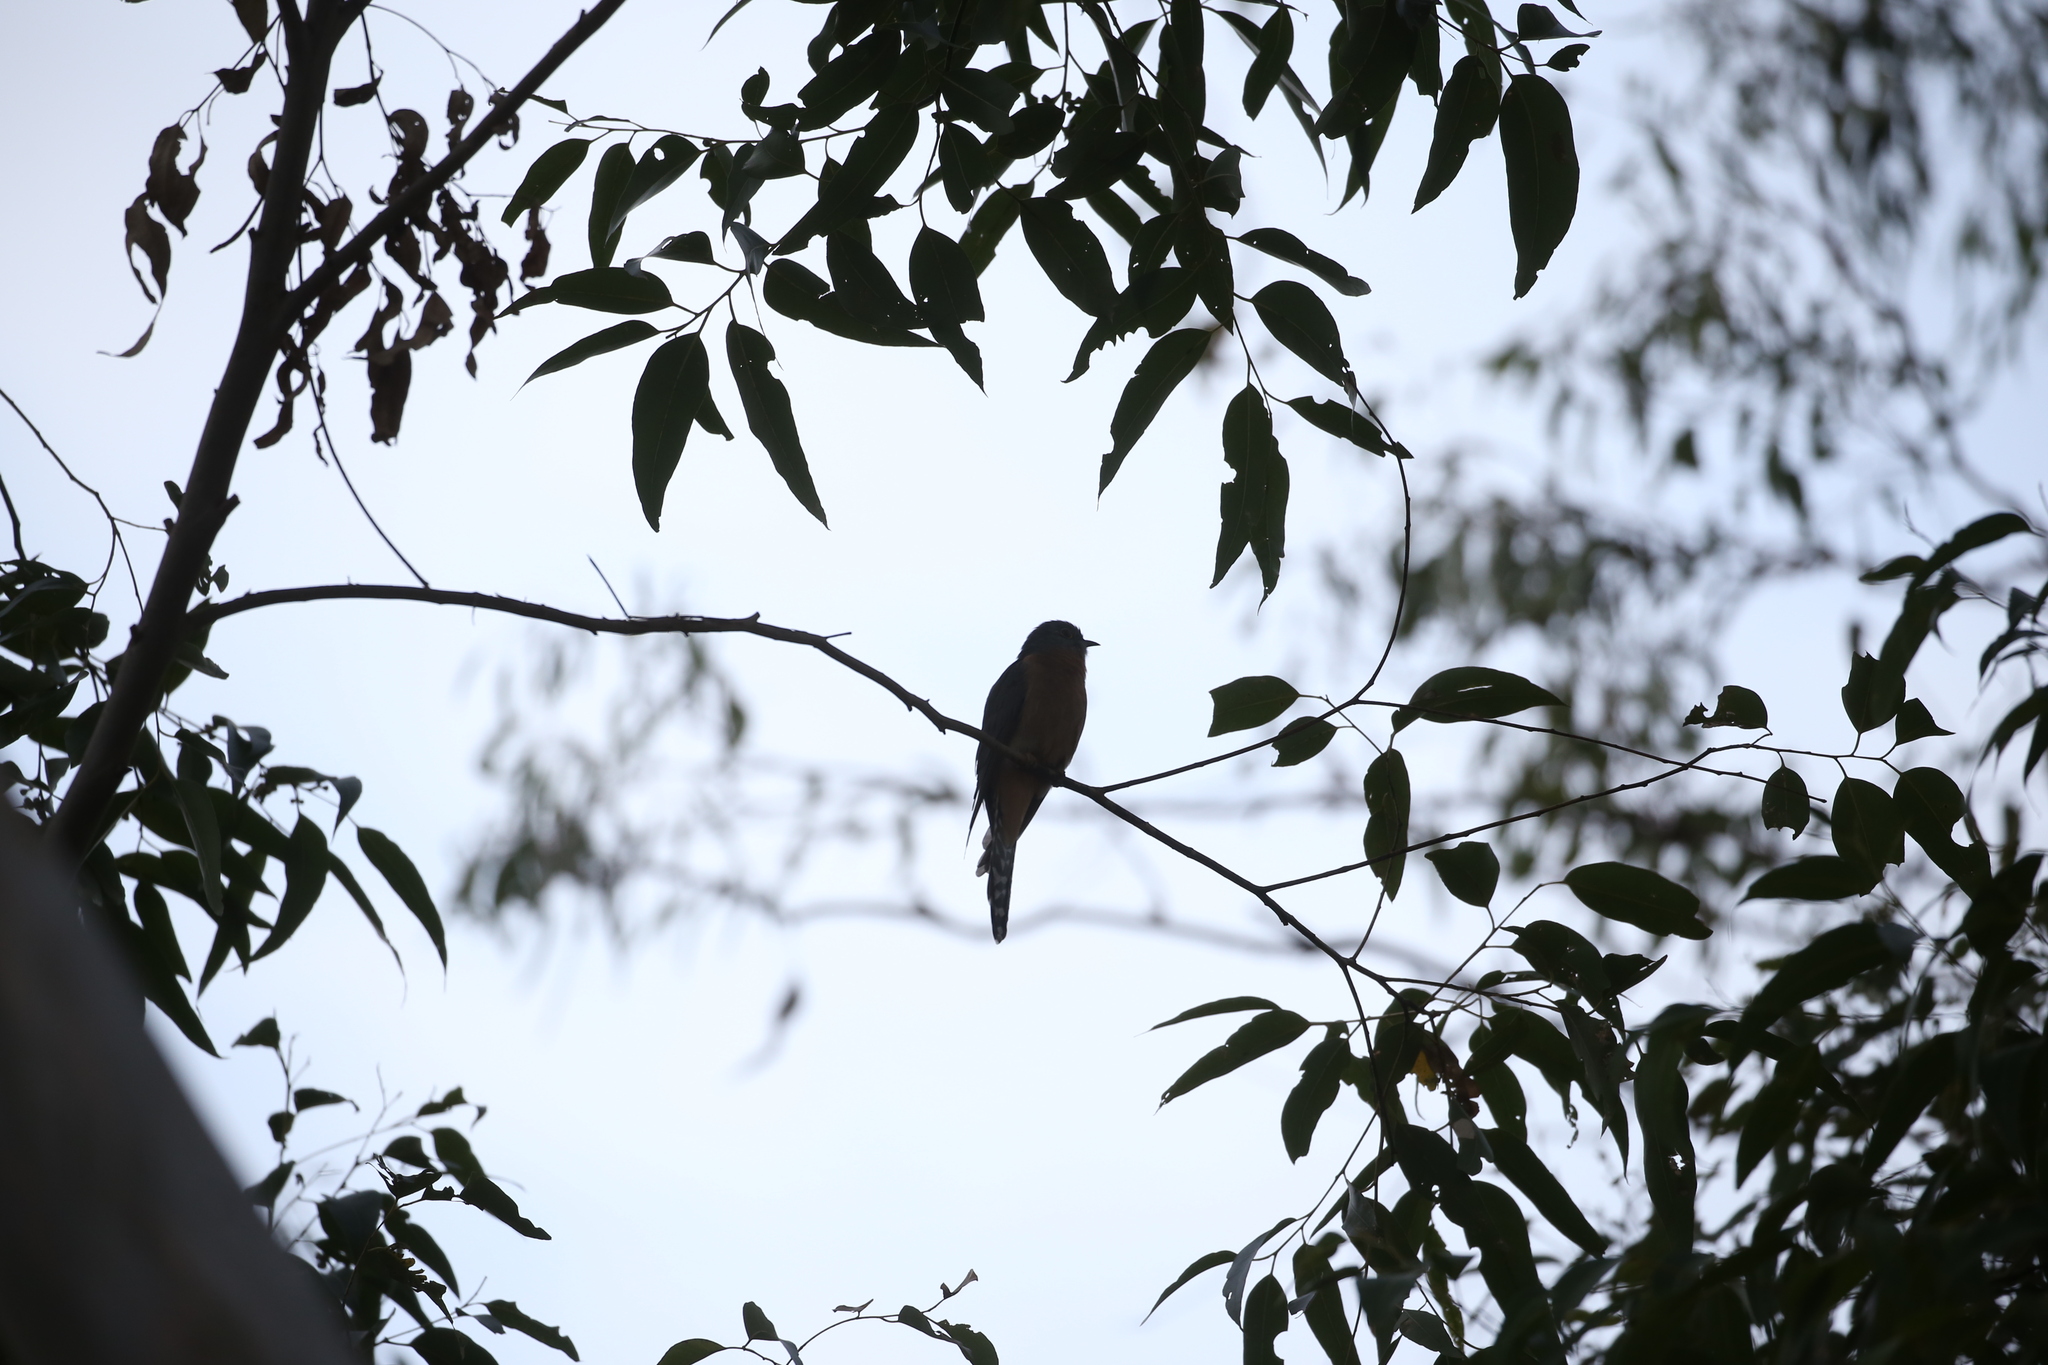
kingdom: Animalia
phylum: Chordata
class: Aves
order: Cuculiformes
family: Cuculidae
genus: Cacomantis
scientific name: Cacomantis flabelliformis
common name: Fan-tailed cuckoo
